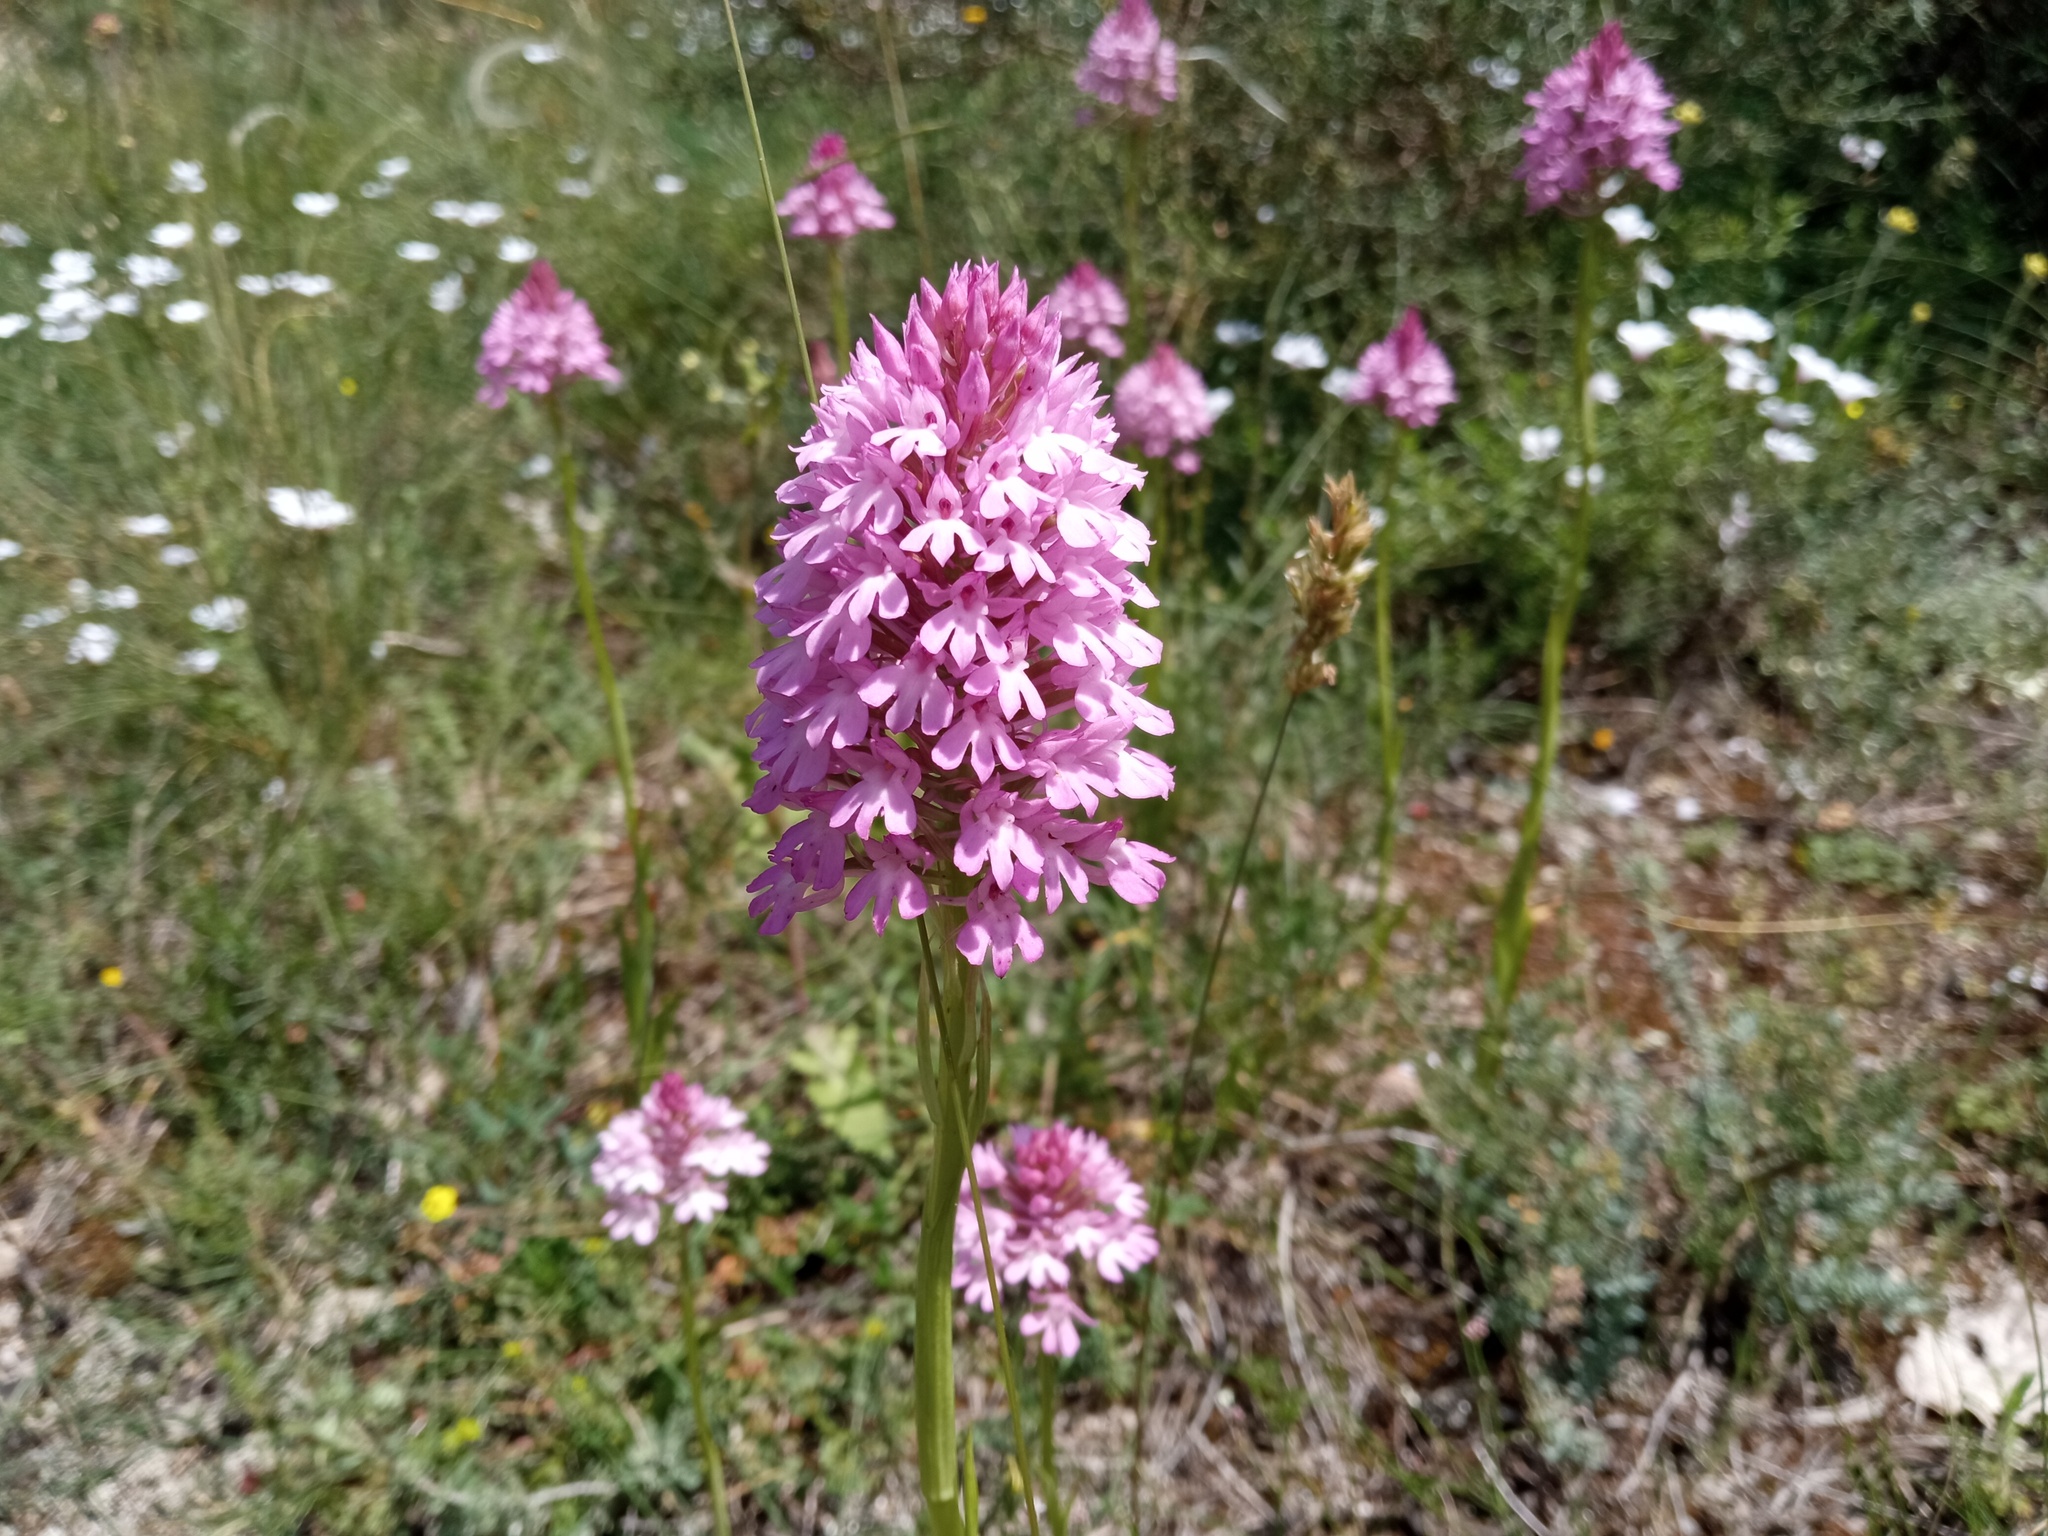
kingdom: Plantae
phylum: Tracheophyta
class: Liliopsida
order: Asparagales
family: Orchidaceae
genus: Anacamptis
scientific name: Anacamptis pyramidalis
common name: Pyramidal orchid
